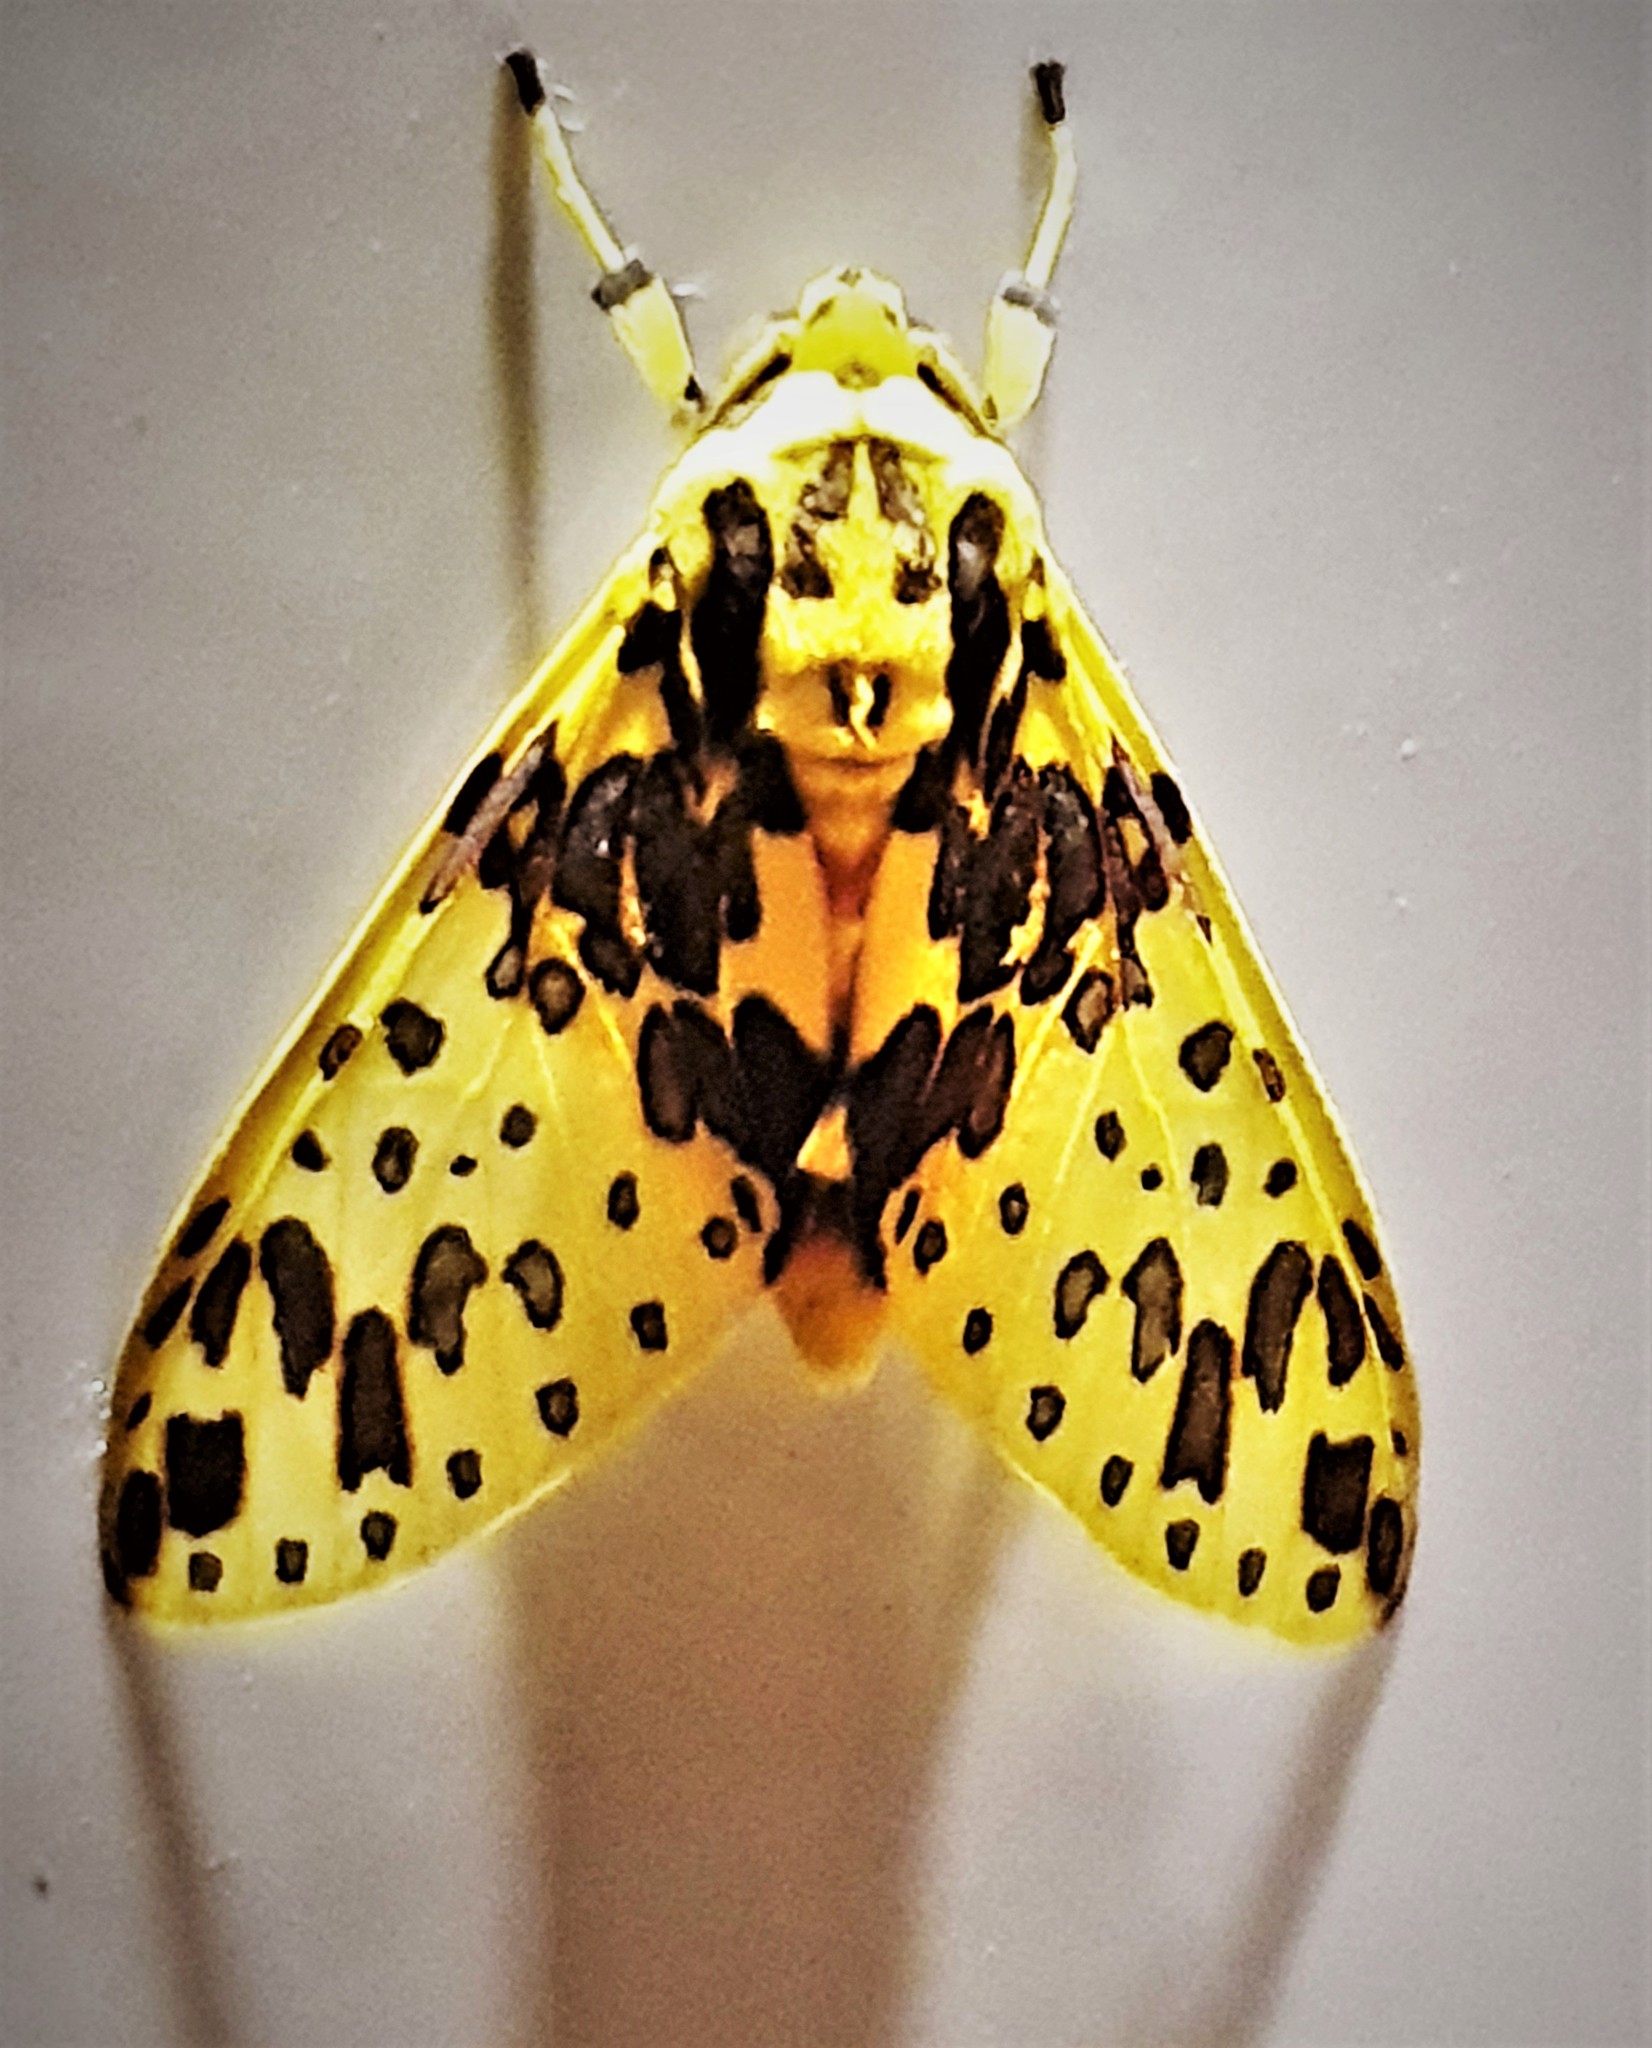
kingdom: Animalia
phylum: Arthropoda
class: Insecta
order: Lepidoptera
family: Erebidae
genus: Amaxia
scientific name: Amaxia klagesi
